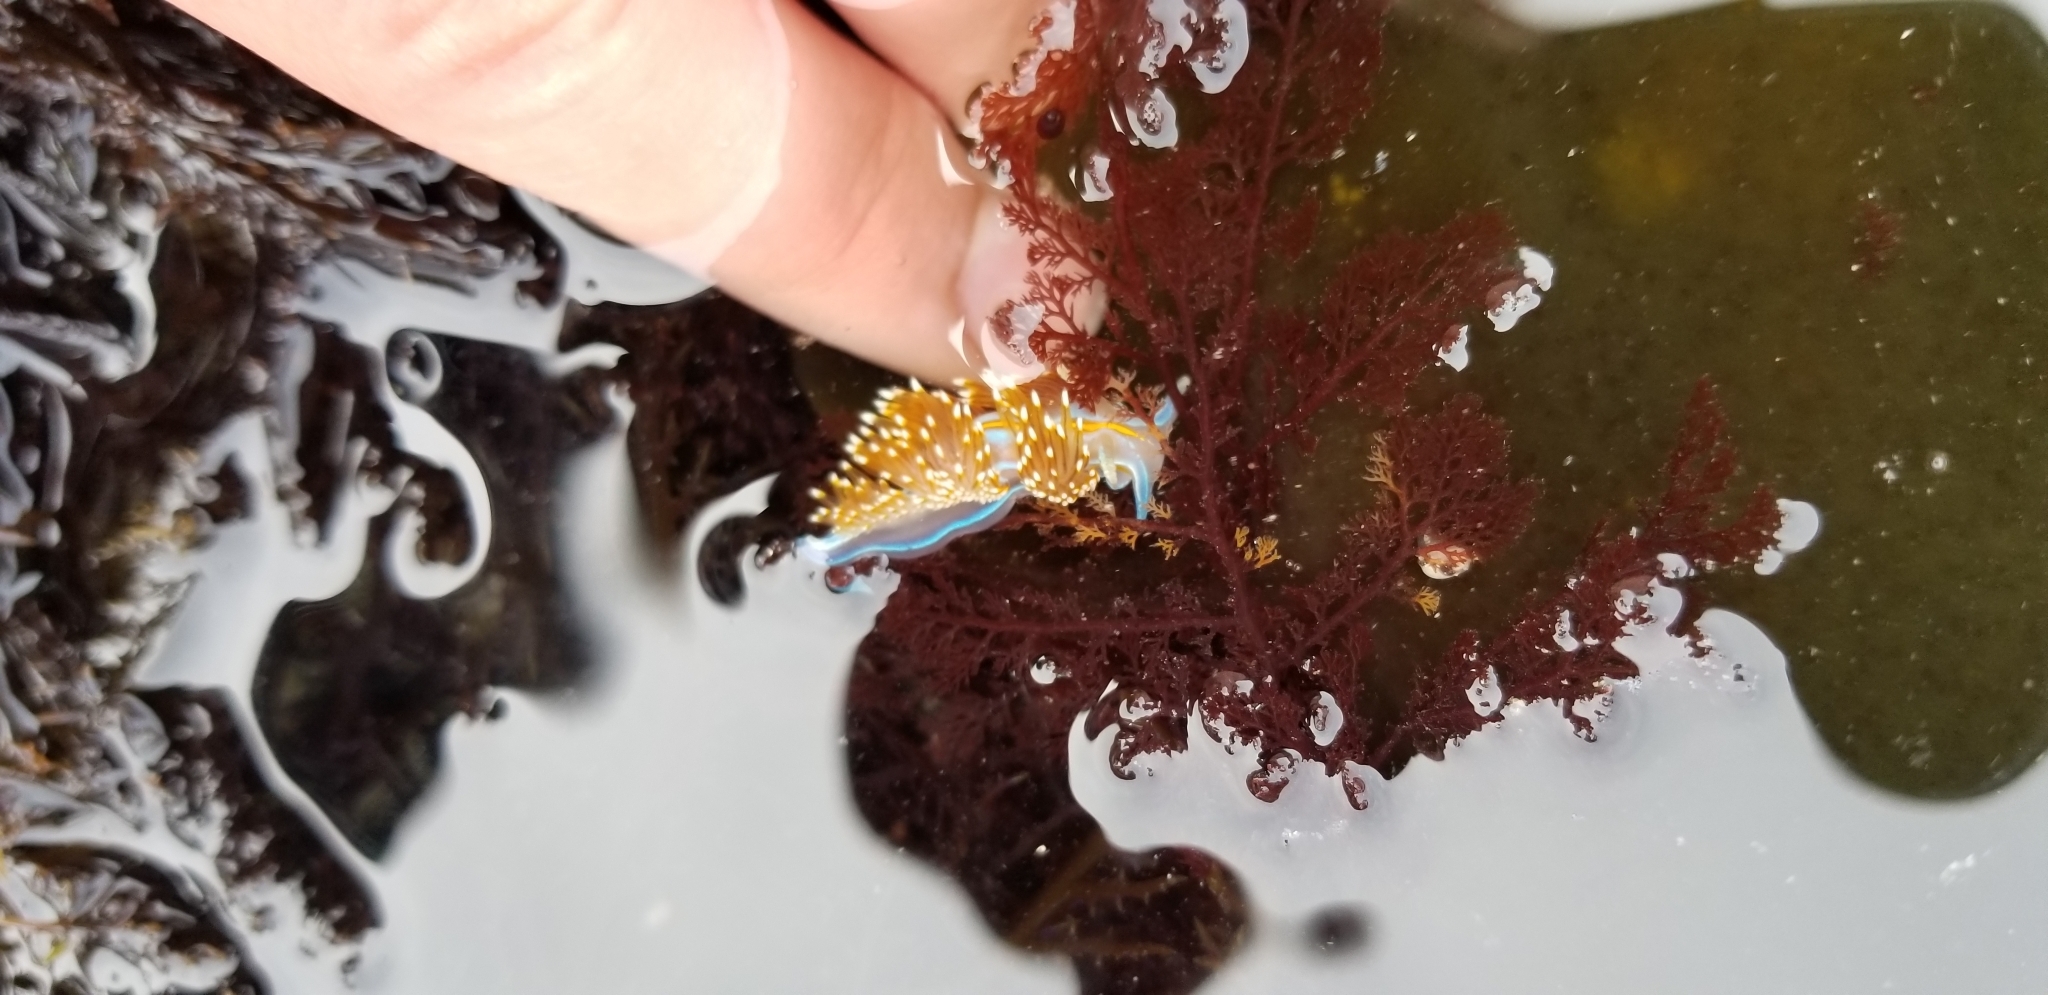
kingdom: Animalia
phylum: Mollusca
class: Gastropoda
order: Nudibranchia
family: Myrrhinidae
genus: Hermissenda
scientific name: Hermissenda opalescens
